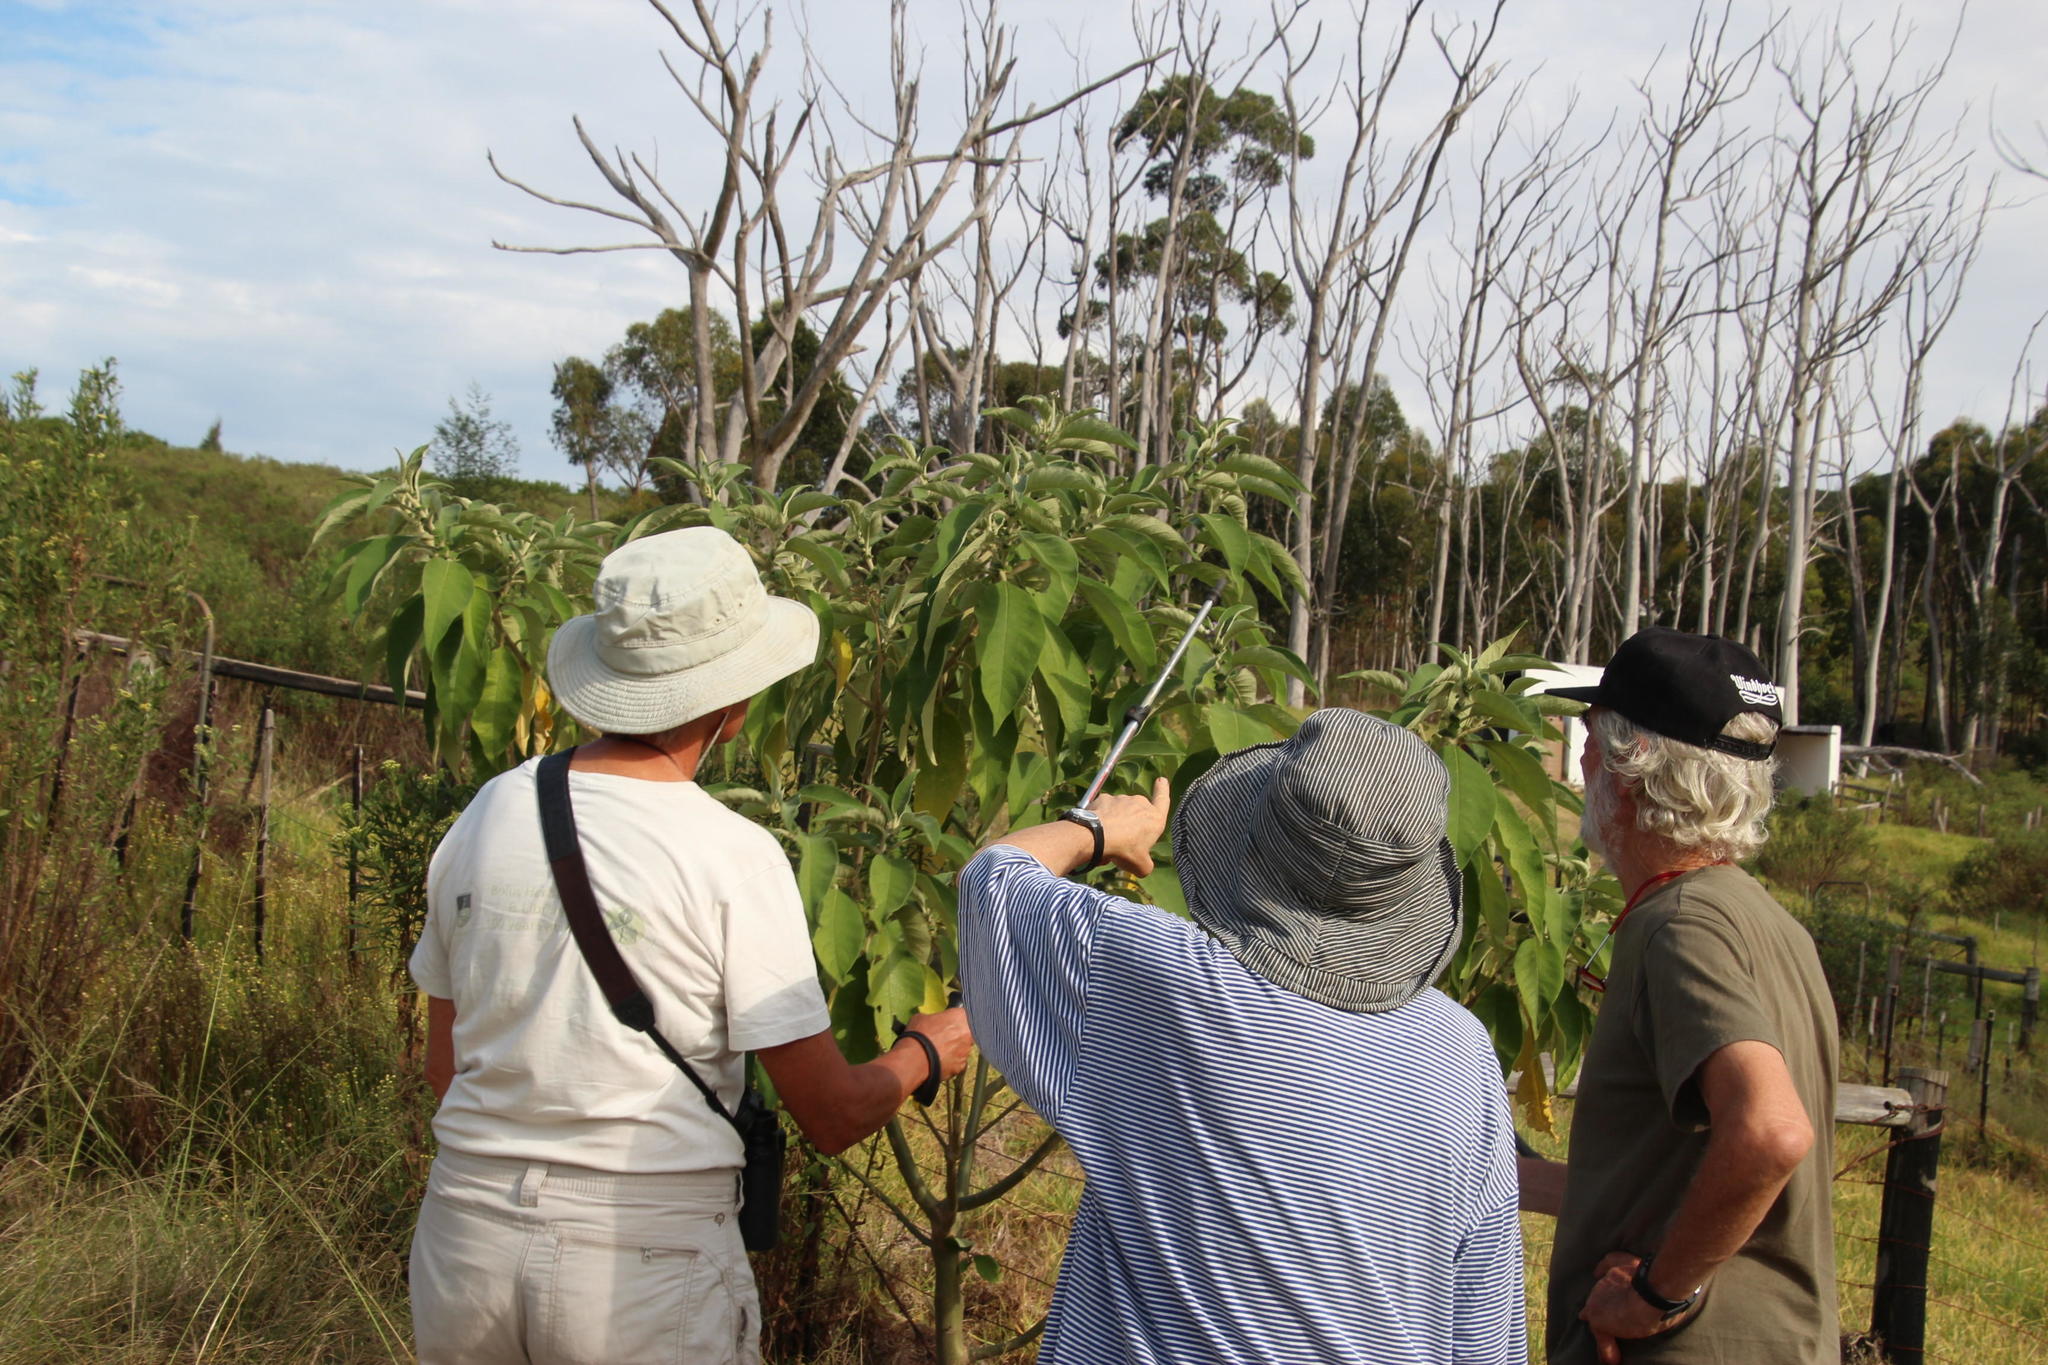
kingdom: Plantae
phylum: Tracheophyta
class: Magnoliopsida
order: Solanales
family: Solanaceae
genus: Solanum
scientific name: Solanum mauritianum
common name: Earleaf nightshade
